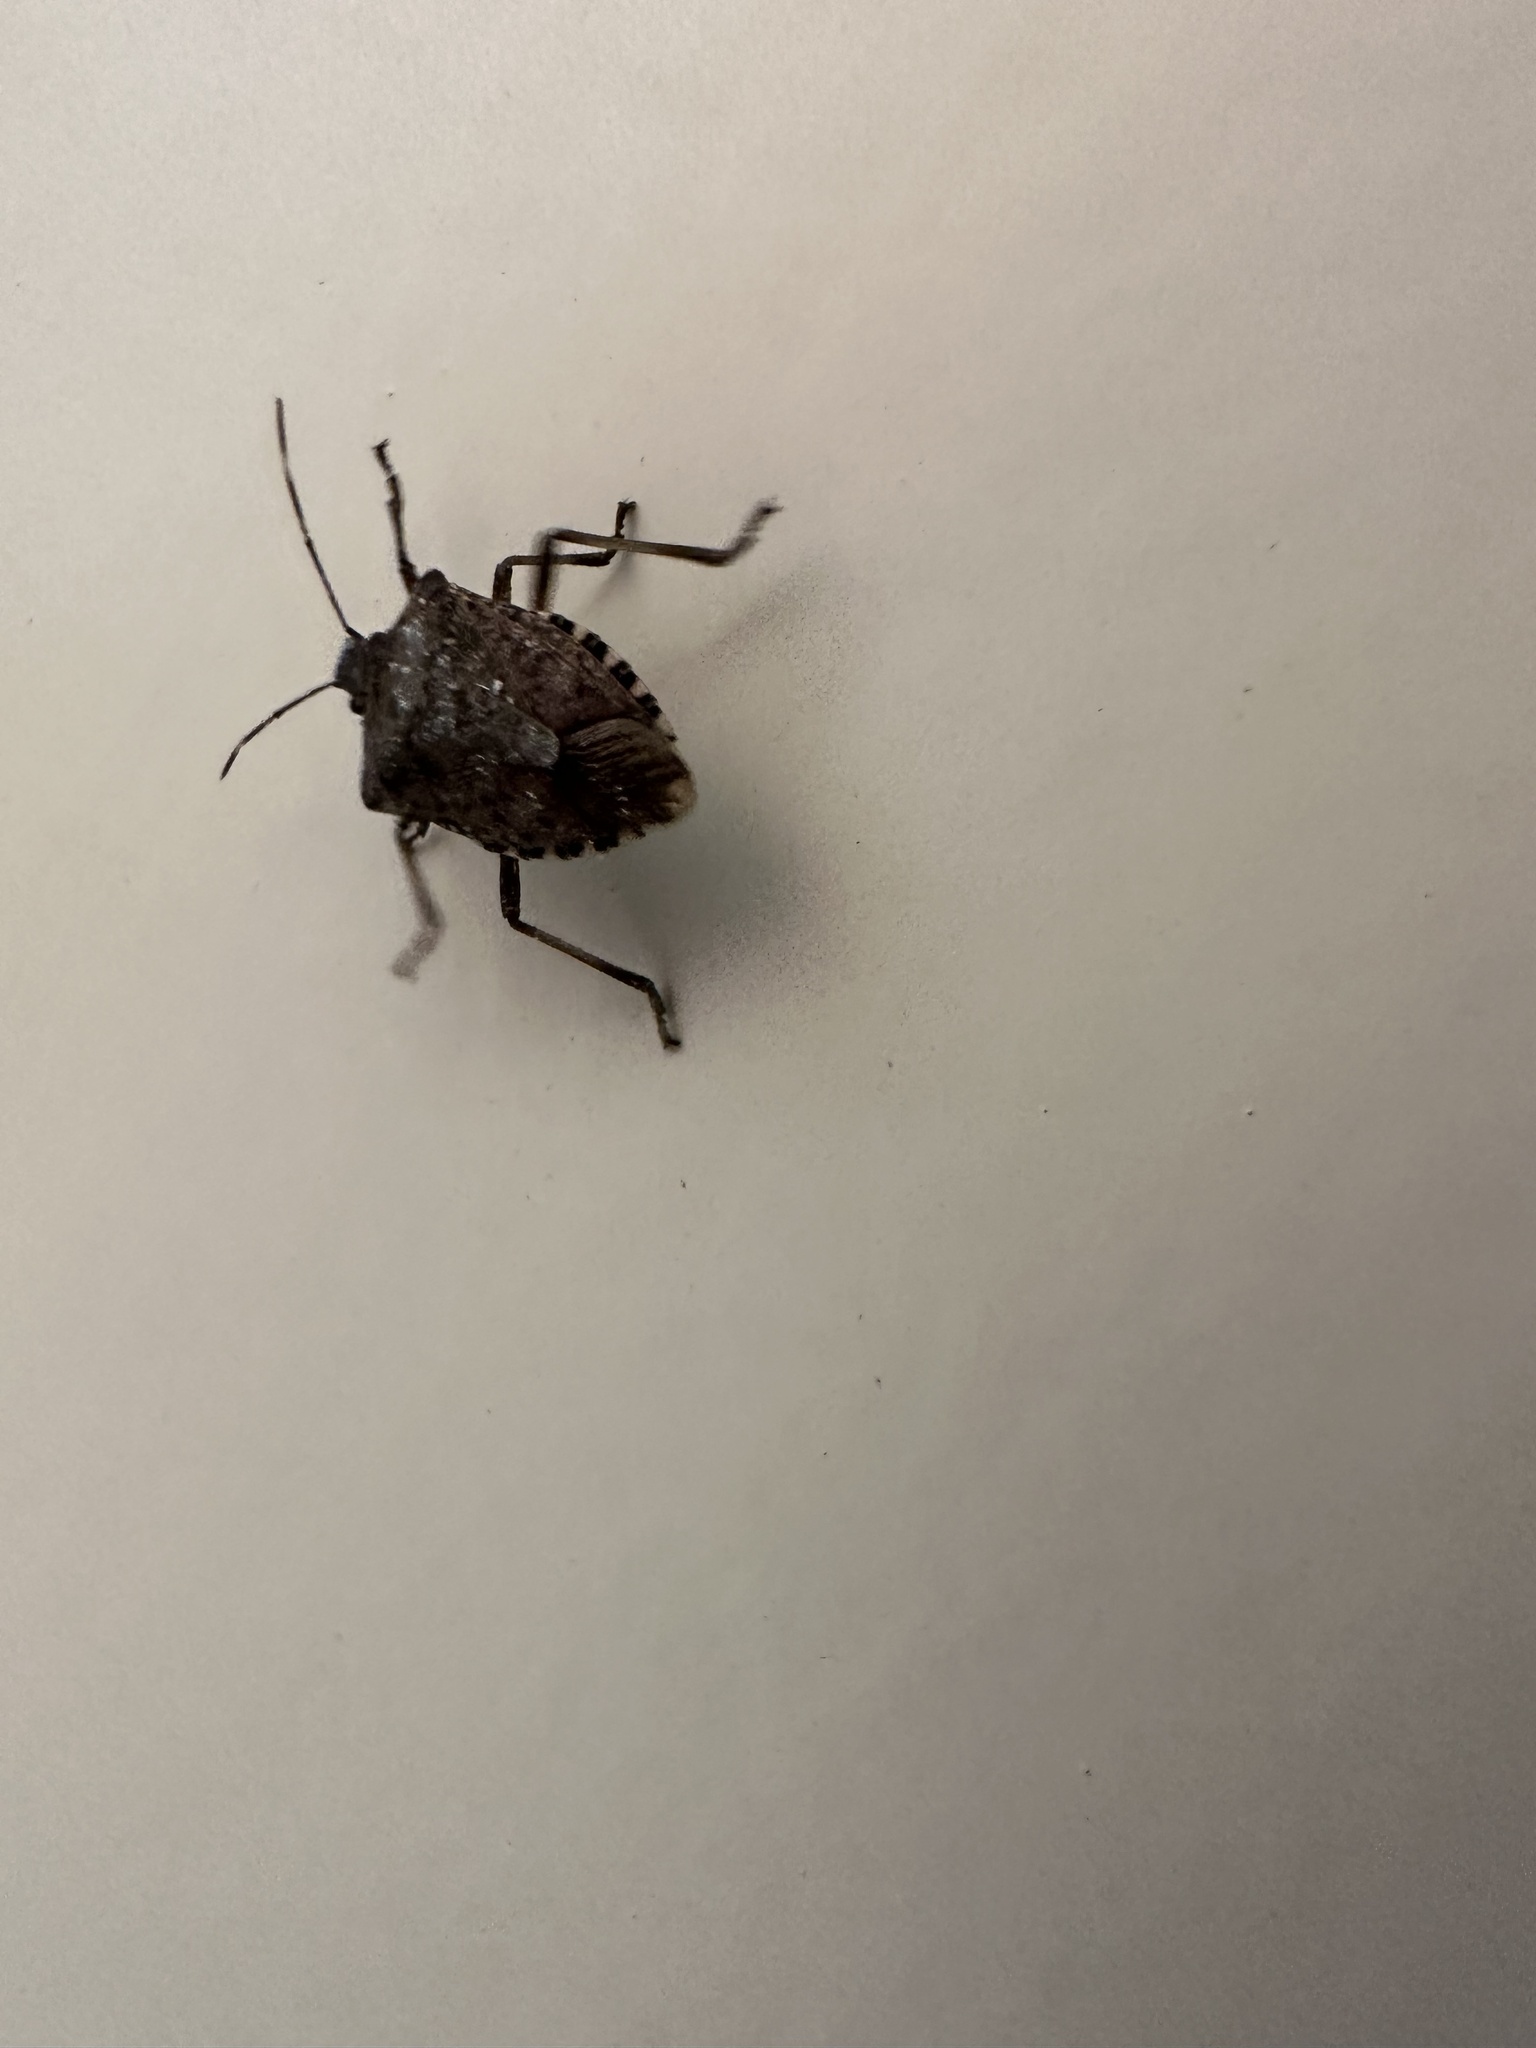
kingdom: Animalia
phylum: Arthropoda
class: Insecta
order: Hemiptera
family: Pentatomidae
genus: Halyomorpha
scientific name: Halyomorpha halys
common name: Brown marmorated stink bug
